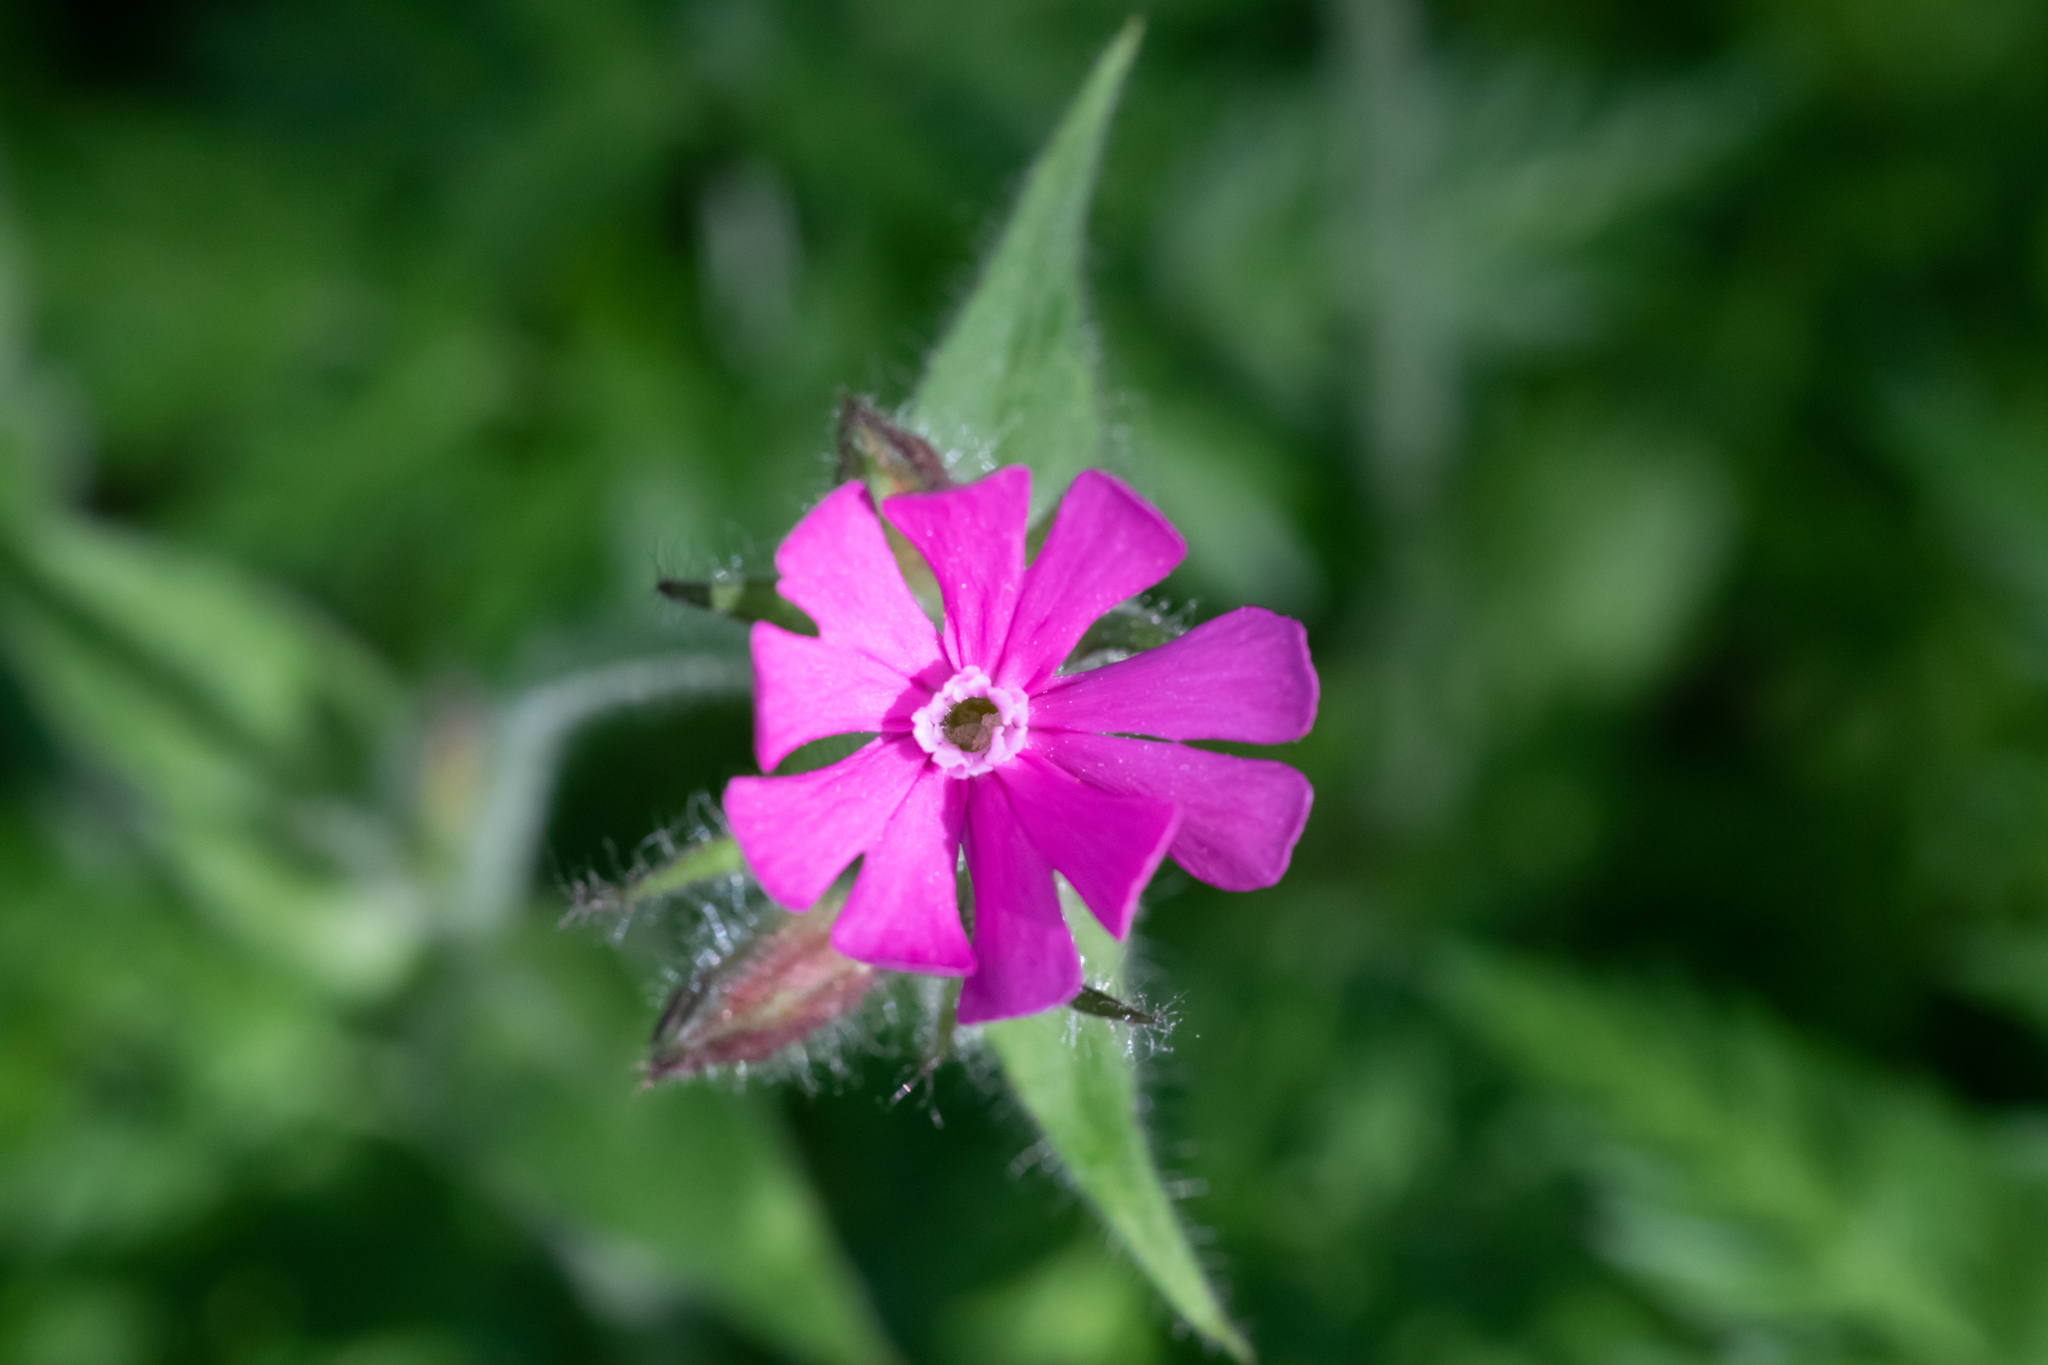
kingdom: Plantae
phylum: Tracheophyta
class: Magnoliopsida
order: Caryophyllales
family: Caryophyllaceae
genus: Silene
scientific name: Silene dioica
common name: Red campion
